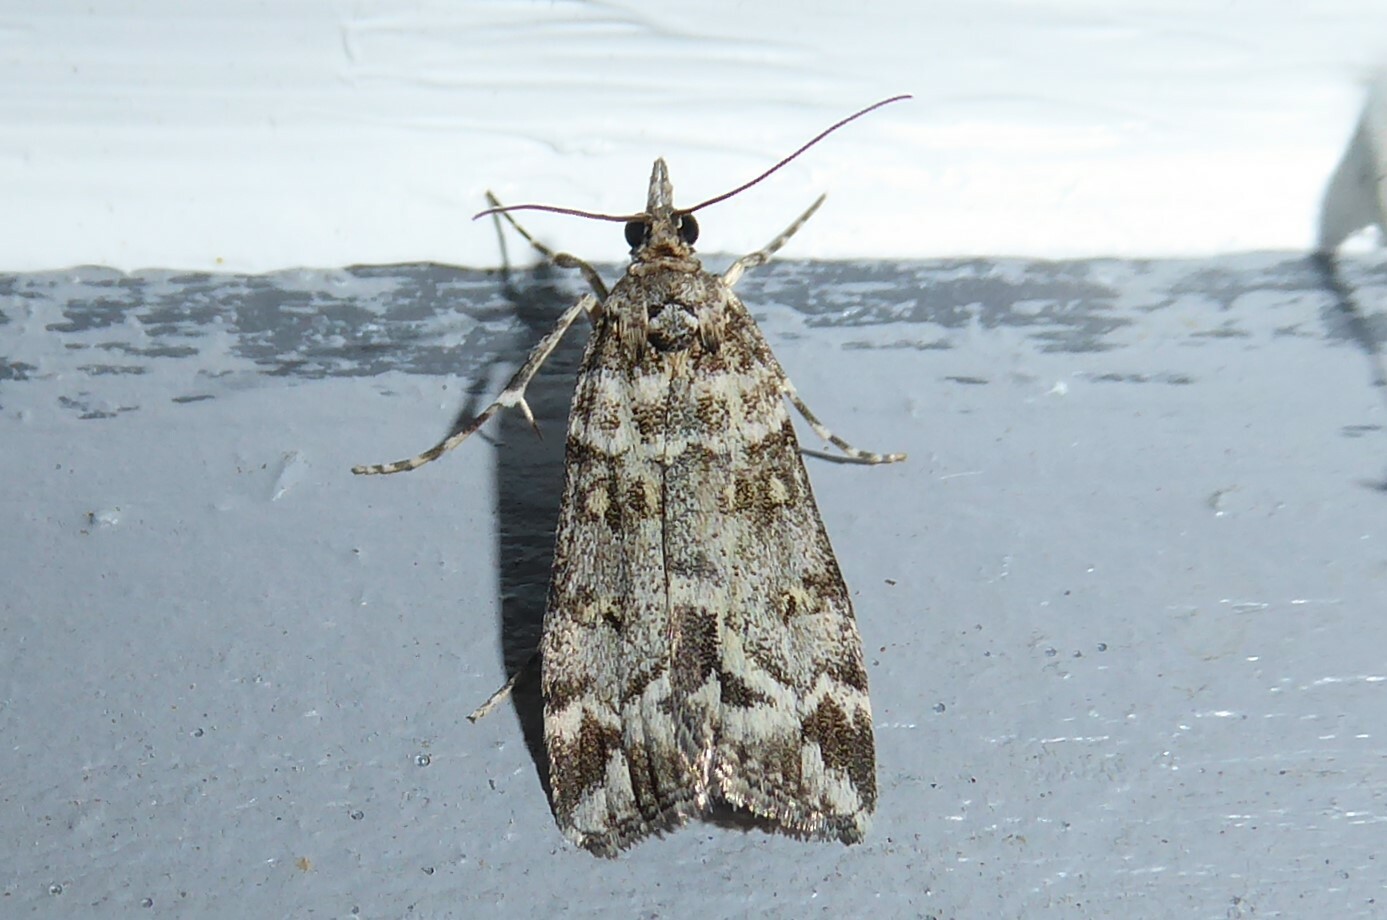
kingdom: Animalia
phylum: Arthropoda
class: Insecta
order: Lepidoptera
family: Crambidae
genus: Scoparia
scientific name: Scoparia tetracycla
